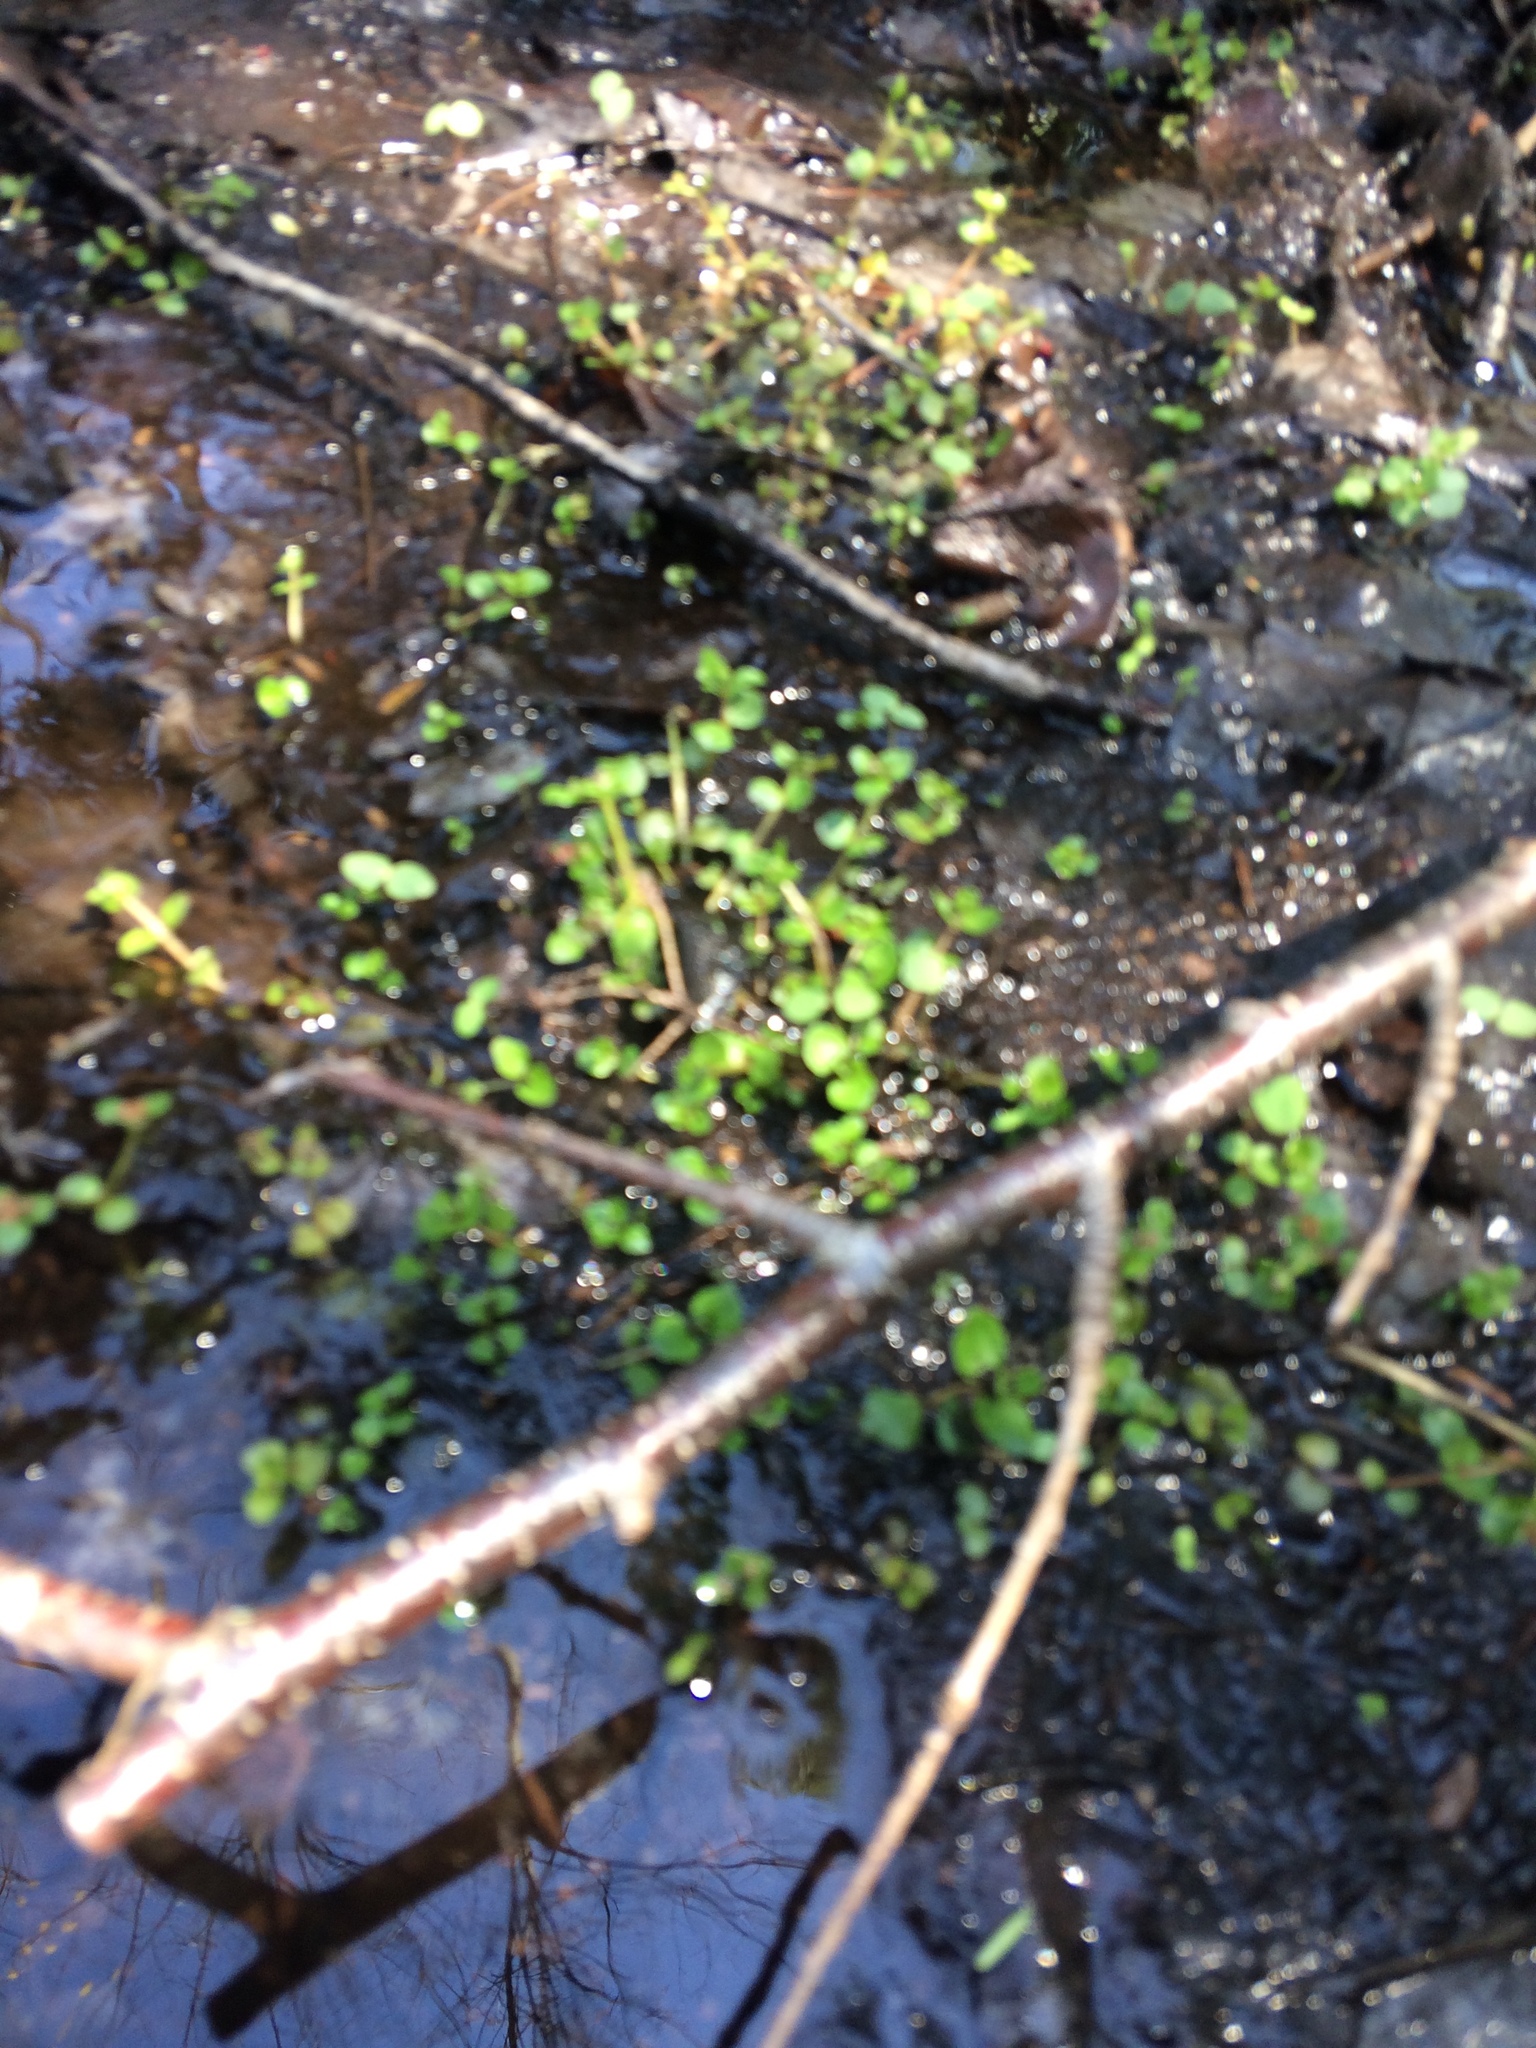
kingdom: Plantae
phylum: Tracheophyta
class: Magnoliopsida
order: Saxifragales
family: Saxifragaceae
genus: Chrysosplenium
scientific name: Chrysosplenium americanum
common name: American golden-saxifrage
